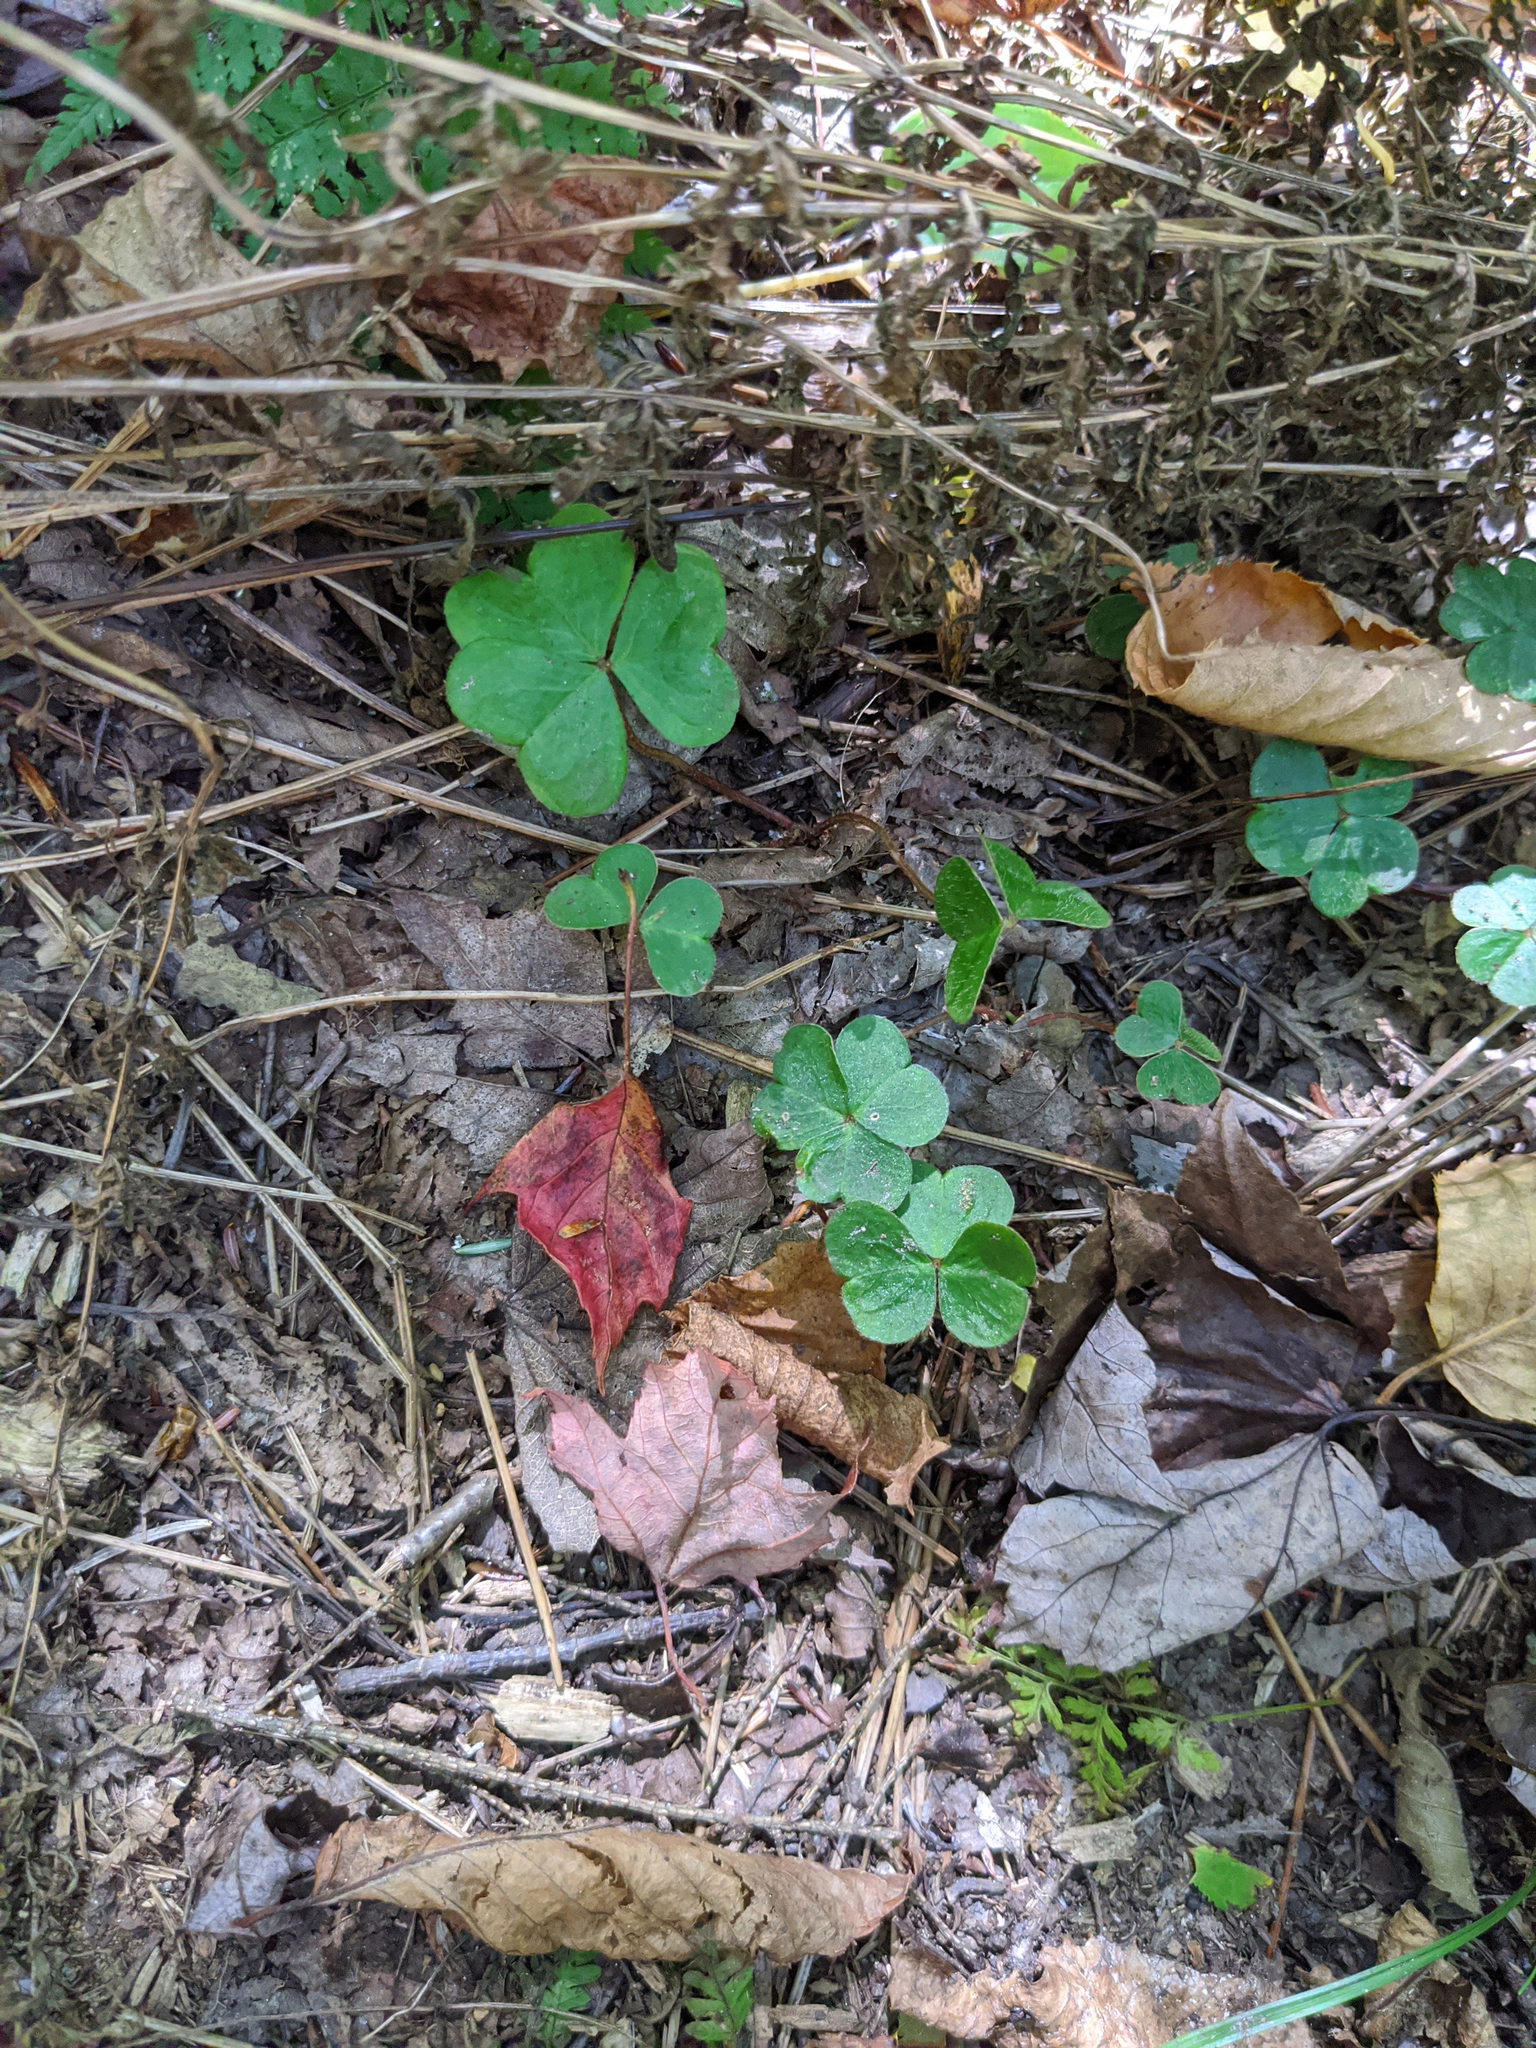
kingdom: Plantae
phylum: Tracheophyta
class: Magnoliopsida
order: Oxalidales
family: Oxalidaceae
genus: Oxalis
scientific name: Oxalis montana
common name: American wood-sorrel
